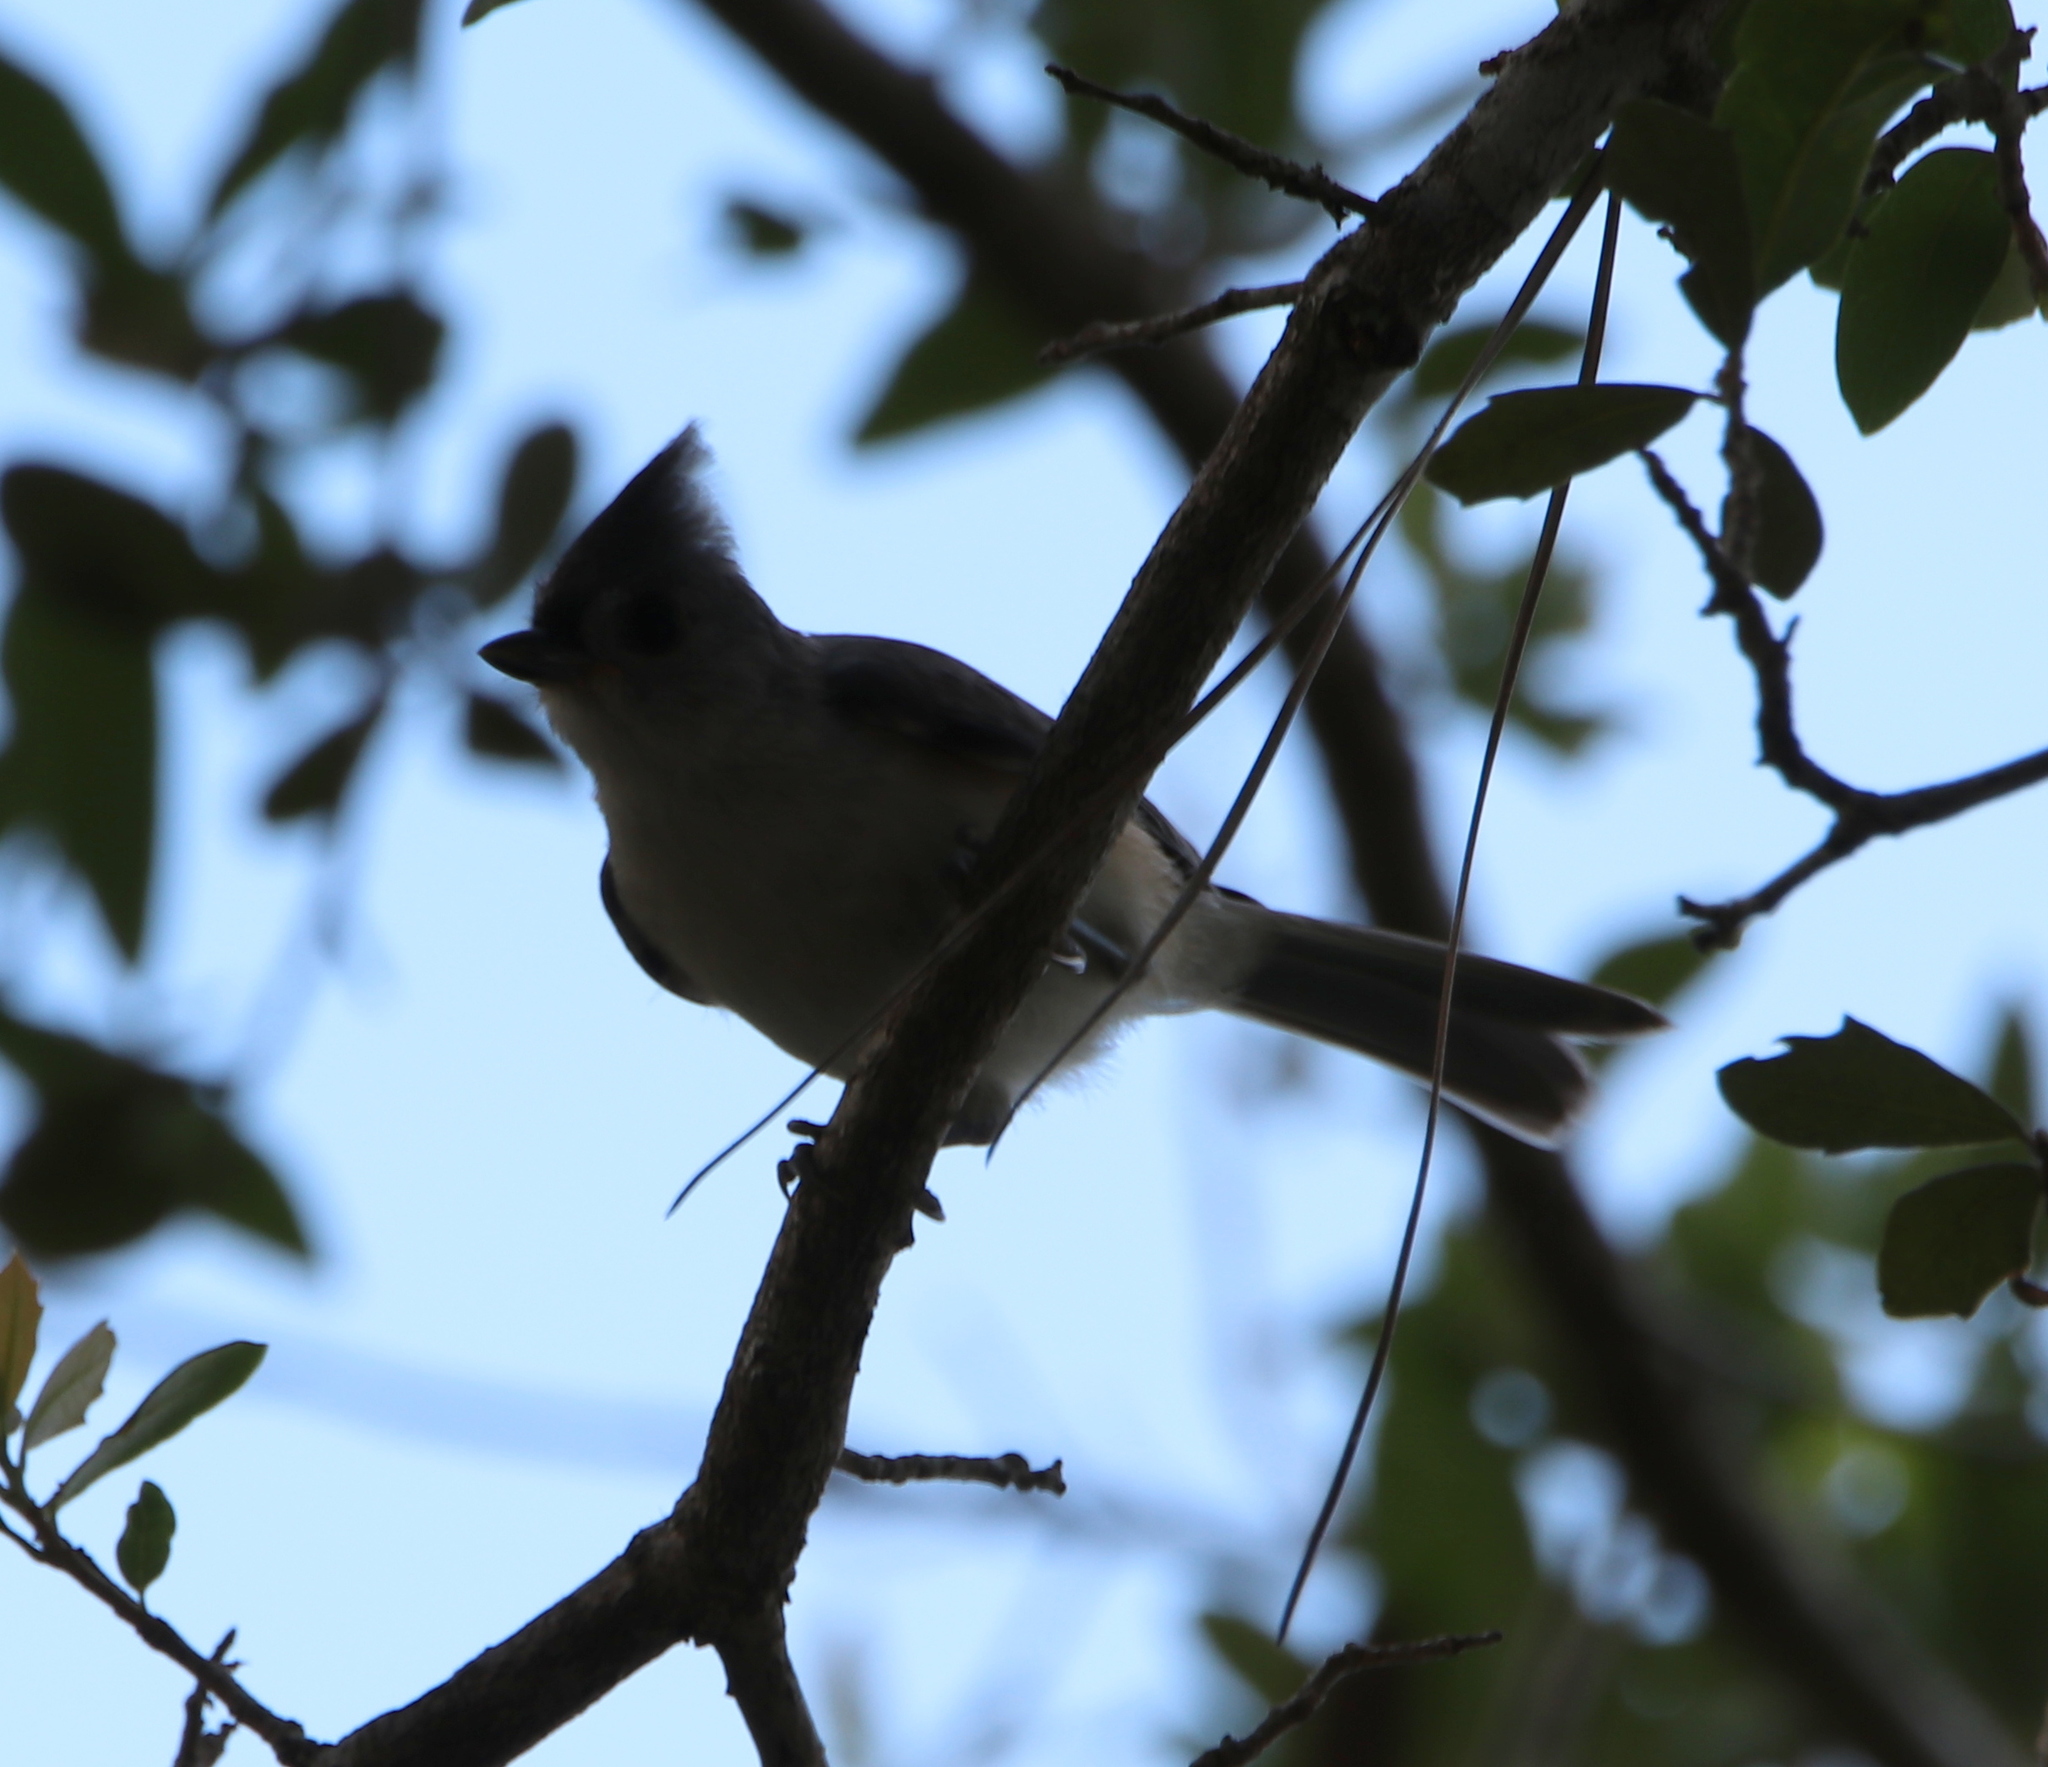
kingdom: Animalia
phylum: Chordata
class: Aves
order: Passeriformes
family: Paridae
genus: Baeolophus
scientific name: Baeolophus bicolor
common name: Tufted titmouse
